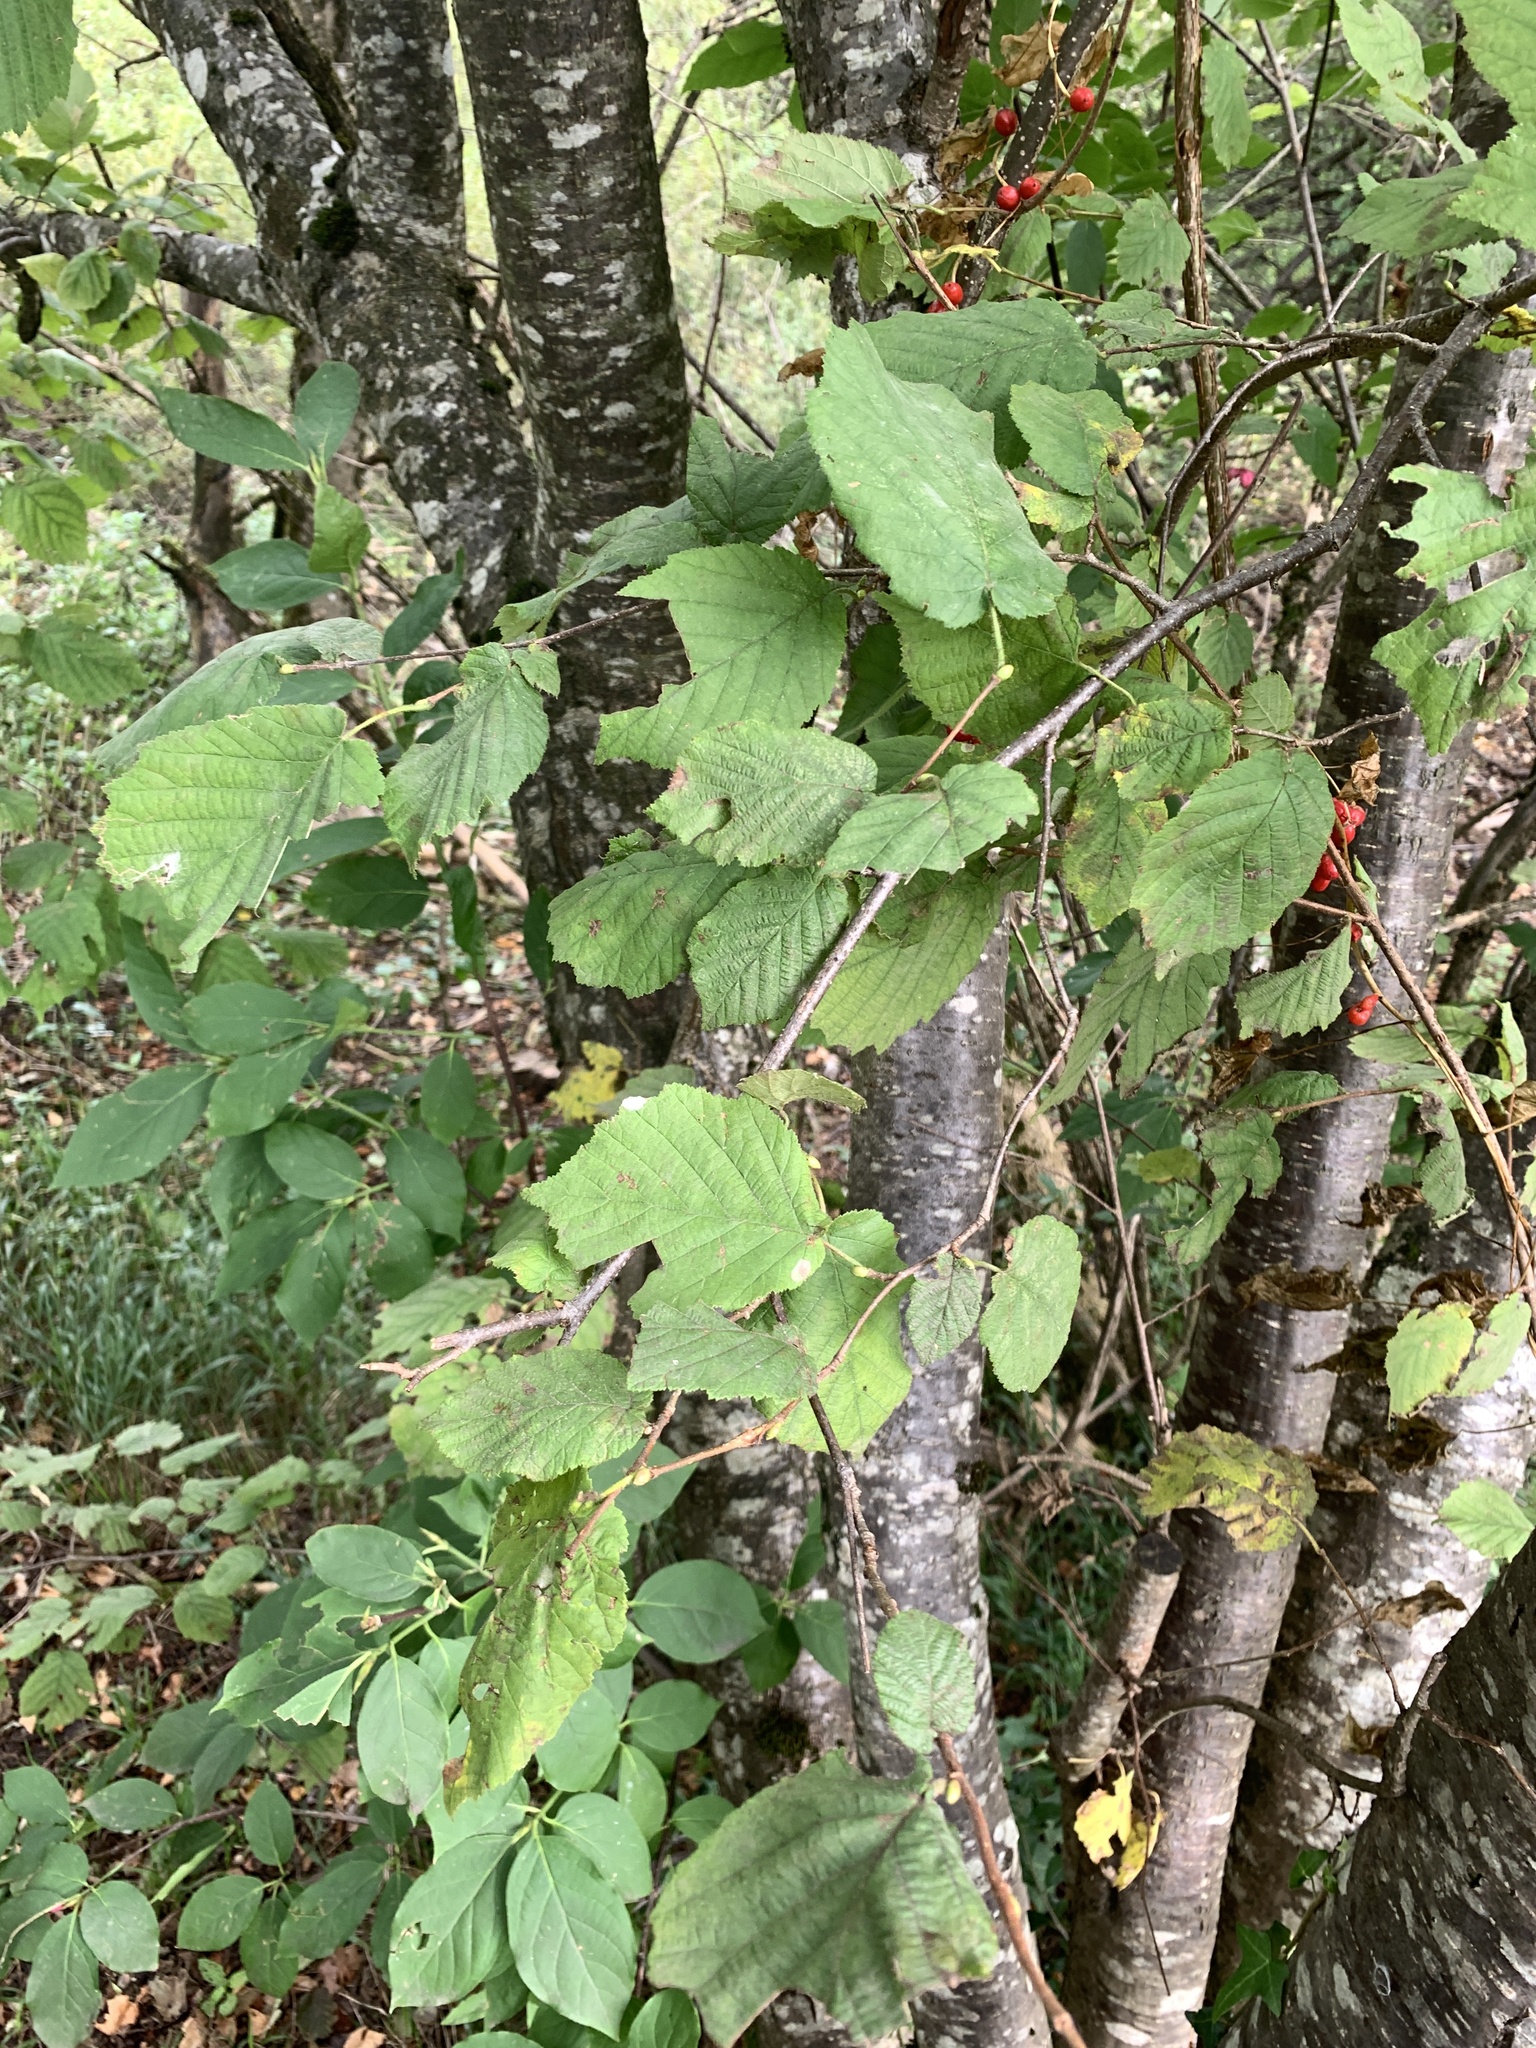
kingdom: Plantae
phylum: Tracheophyta
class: Magnoliopsida
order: Fagales
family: Betulaceae
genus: Corylus
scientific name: Corylus avellana
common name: European hazel
